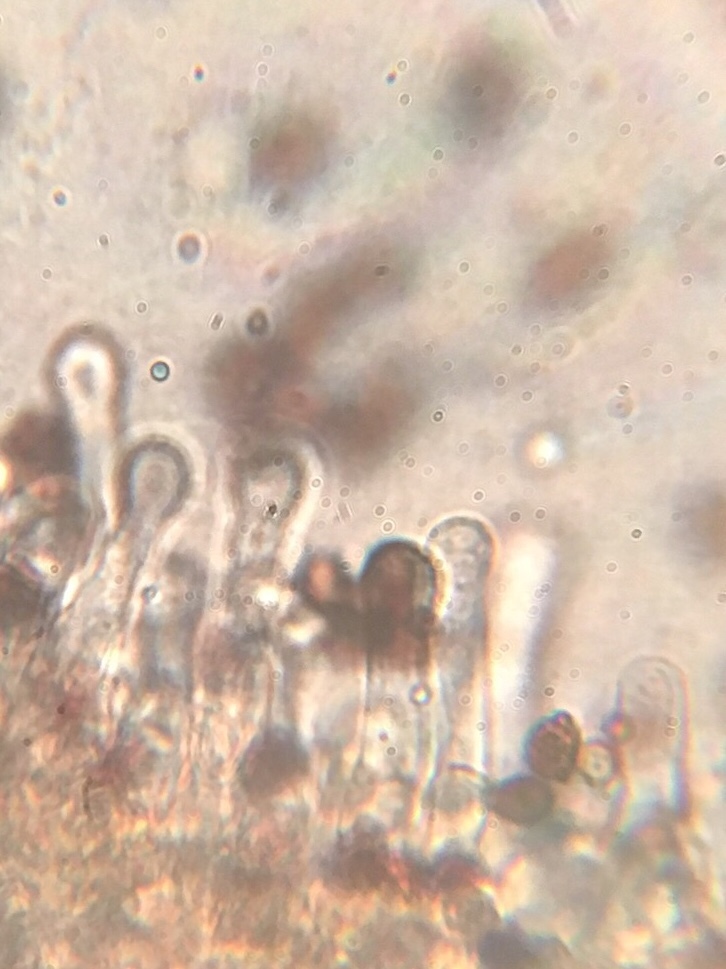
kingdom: Fungi
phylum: Basidiomycota
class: Agaricomycetes
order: Agaricales
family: Psathyrellaceae
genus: Lacrymaria
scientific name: Lacrymaria lacrymabunda
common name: Weeping widow
